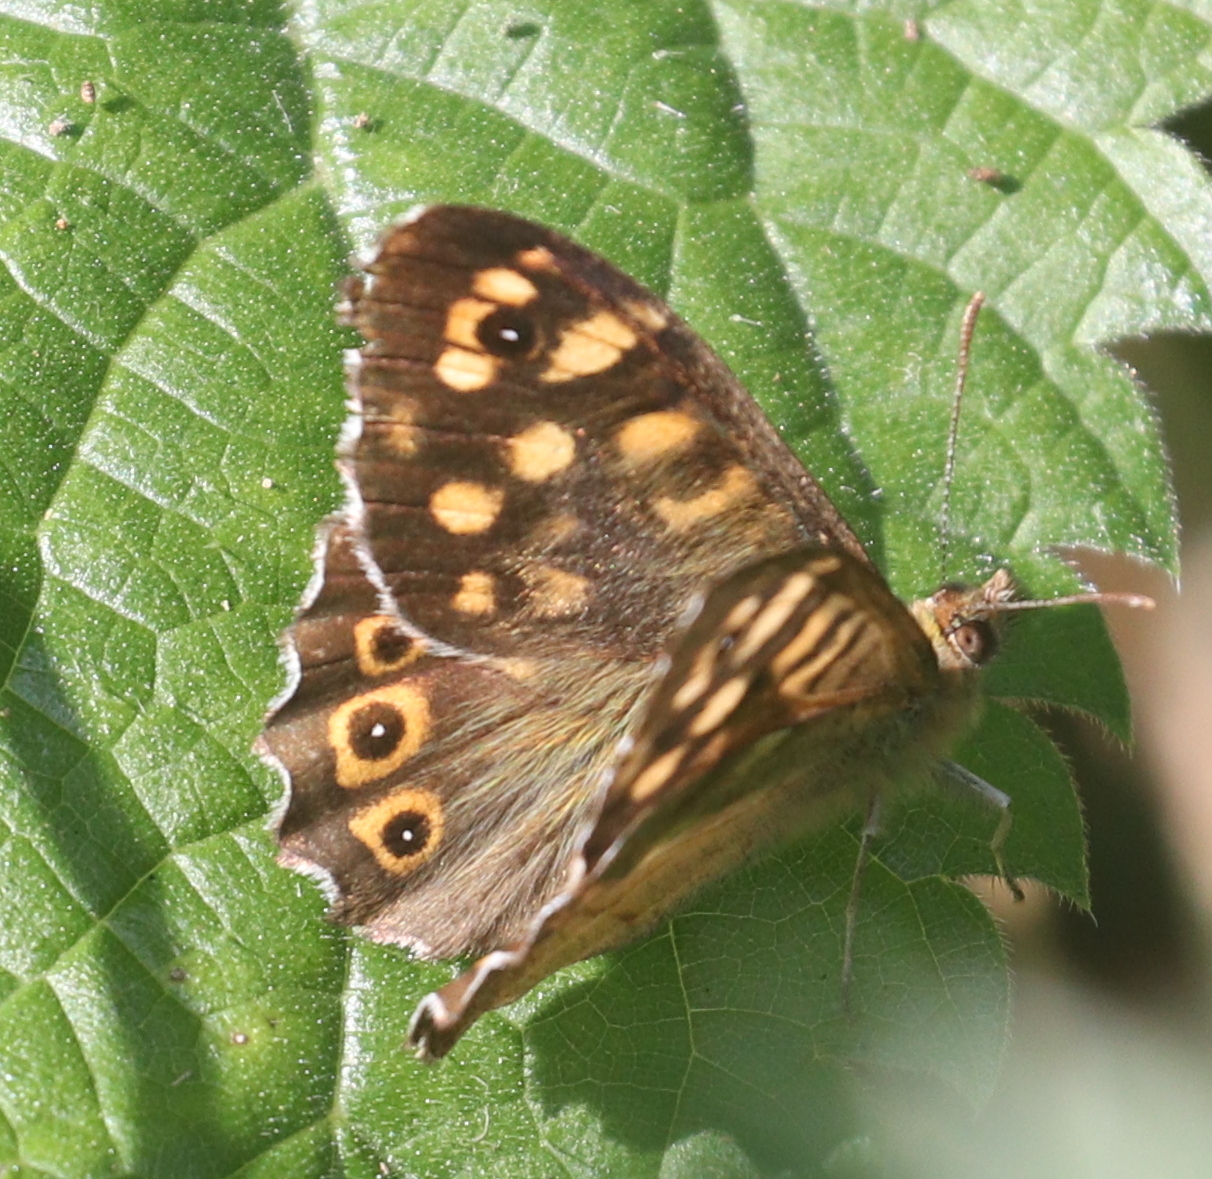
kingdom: Animalia
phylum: Arthropoda
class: Insecta
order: Lepidoptera
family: Nymphalidae
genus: Pararge
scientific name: Pararge aegeria
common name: Speckled wood
